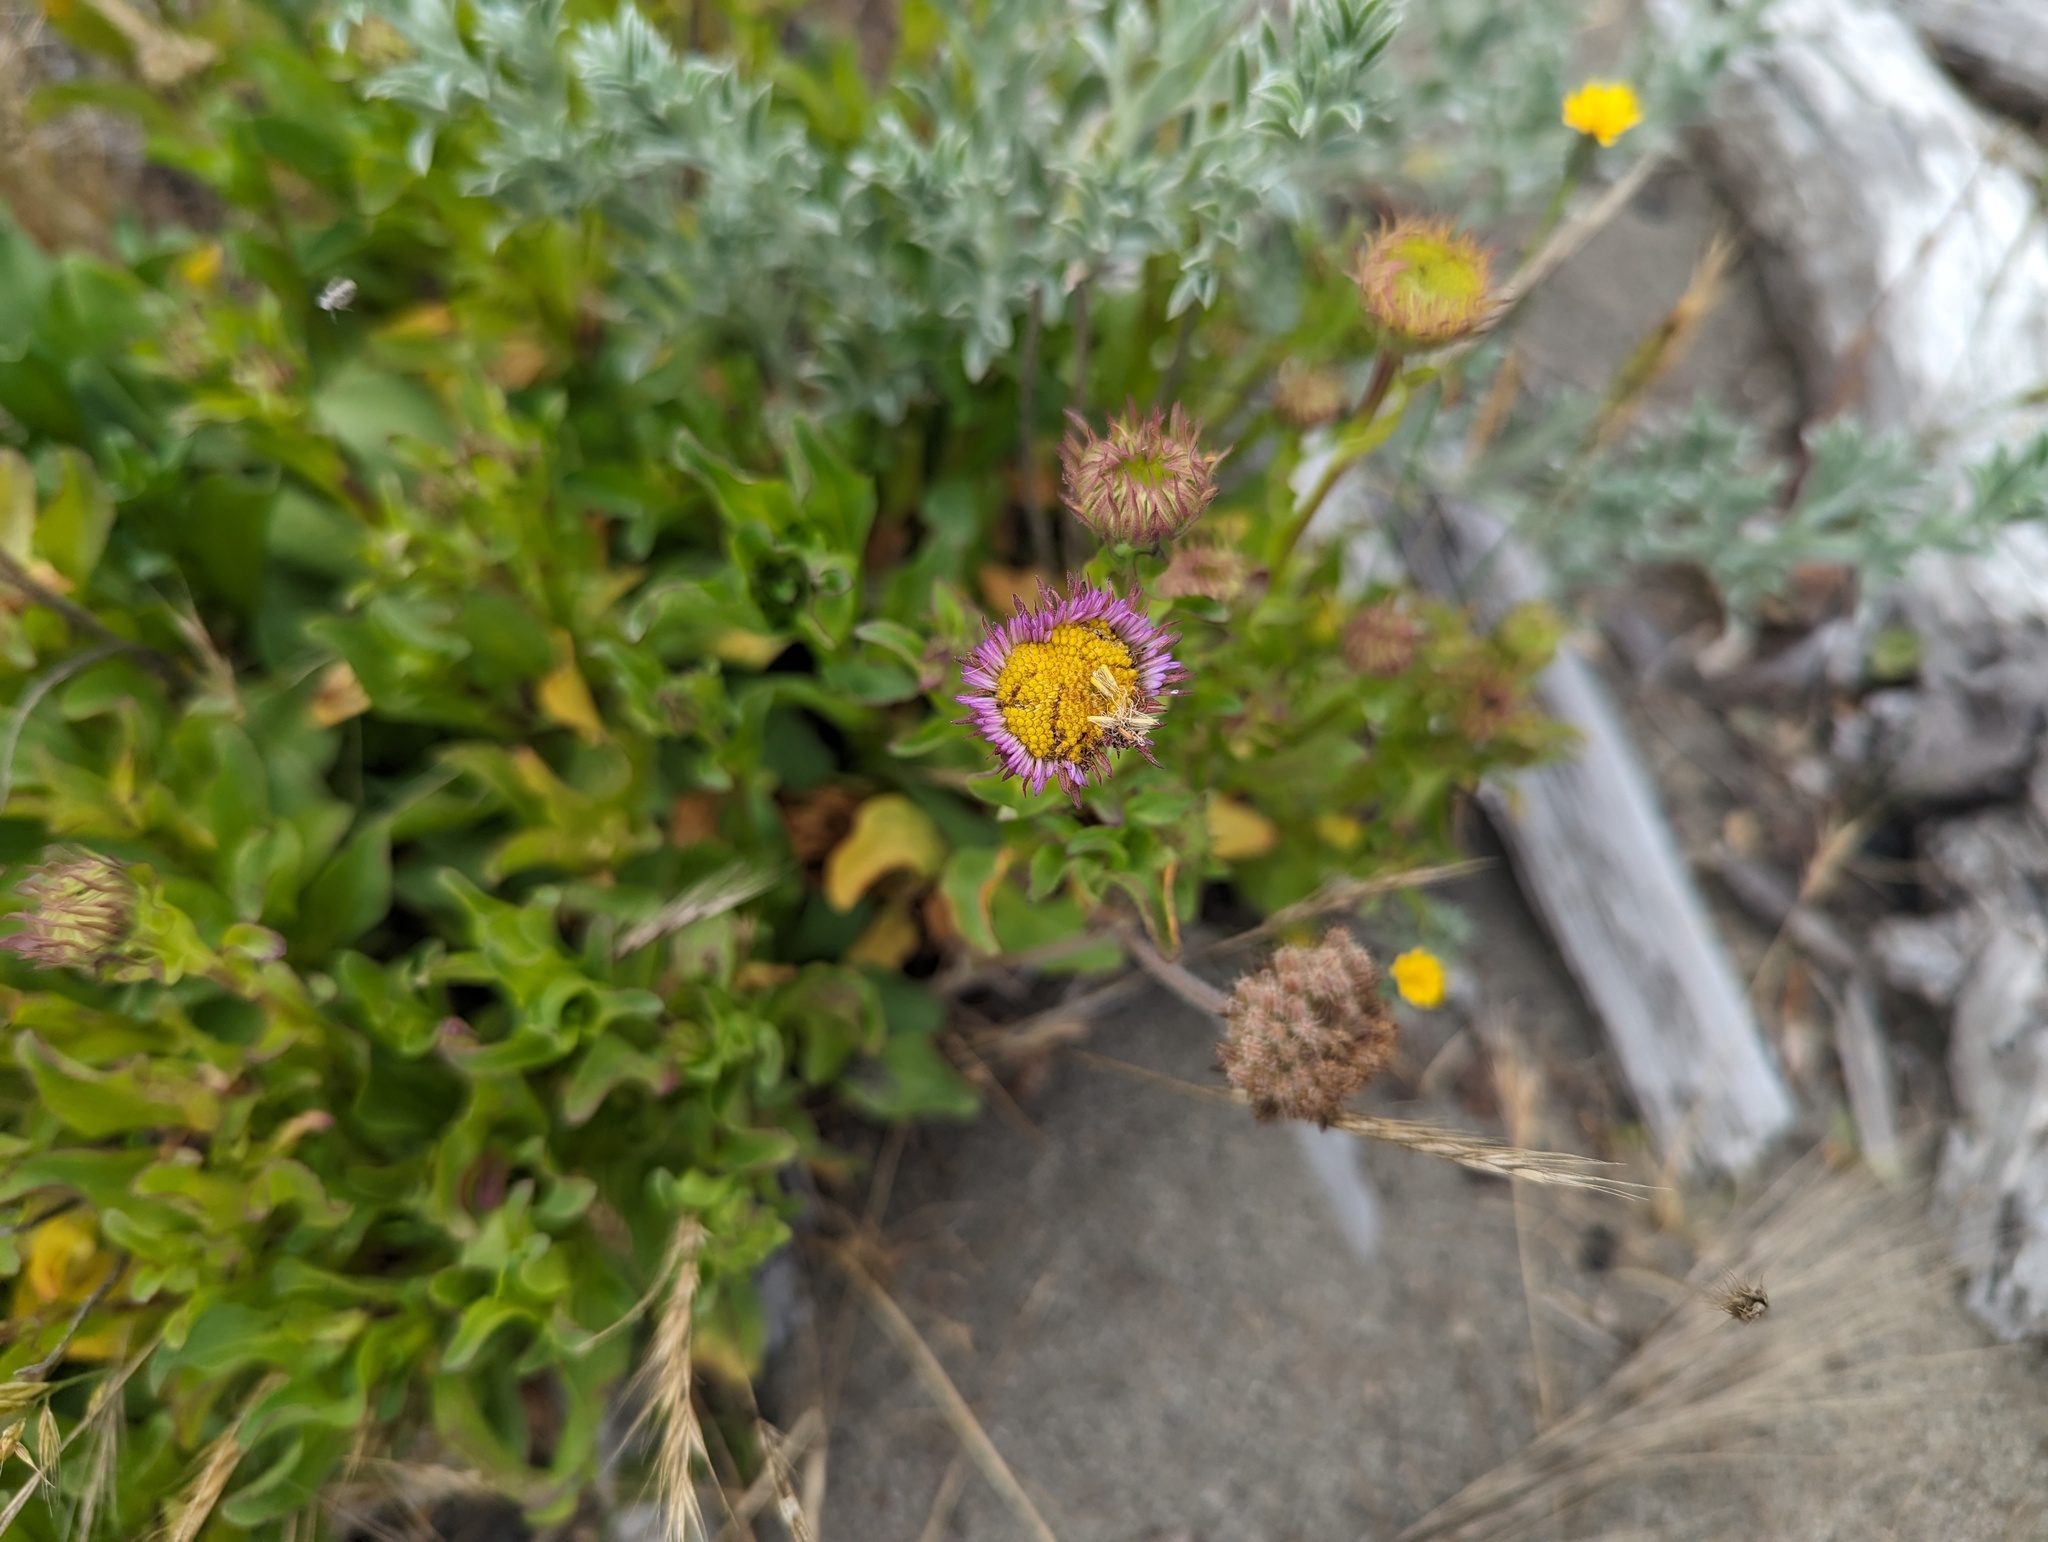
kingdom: Plantae
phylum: Tracheophyta
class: Magnoliopsida
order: Asterales
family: Asteraceae
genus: Erigeron
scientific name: Erigeron glaucus
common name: Seaside daisy
